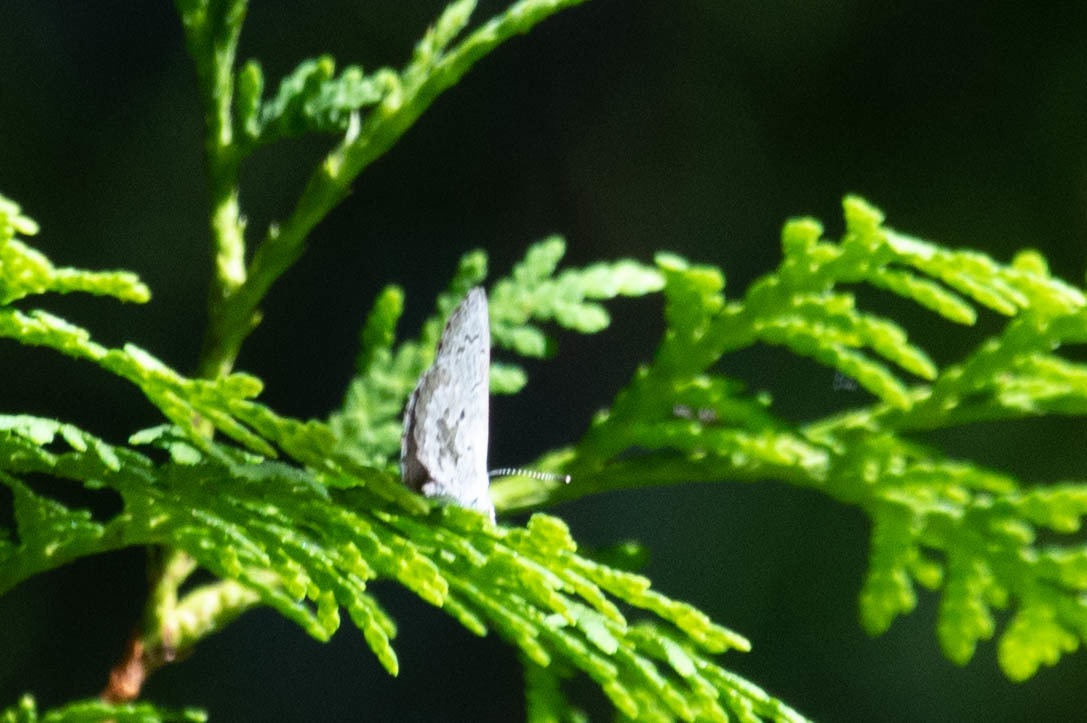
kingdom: Animalia
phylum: Arthropoda
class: Insecta
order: Lepidoptera
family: Lycaenidae
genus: Celastrina
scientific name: Celastrina lucia
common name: Lucia azure
